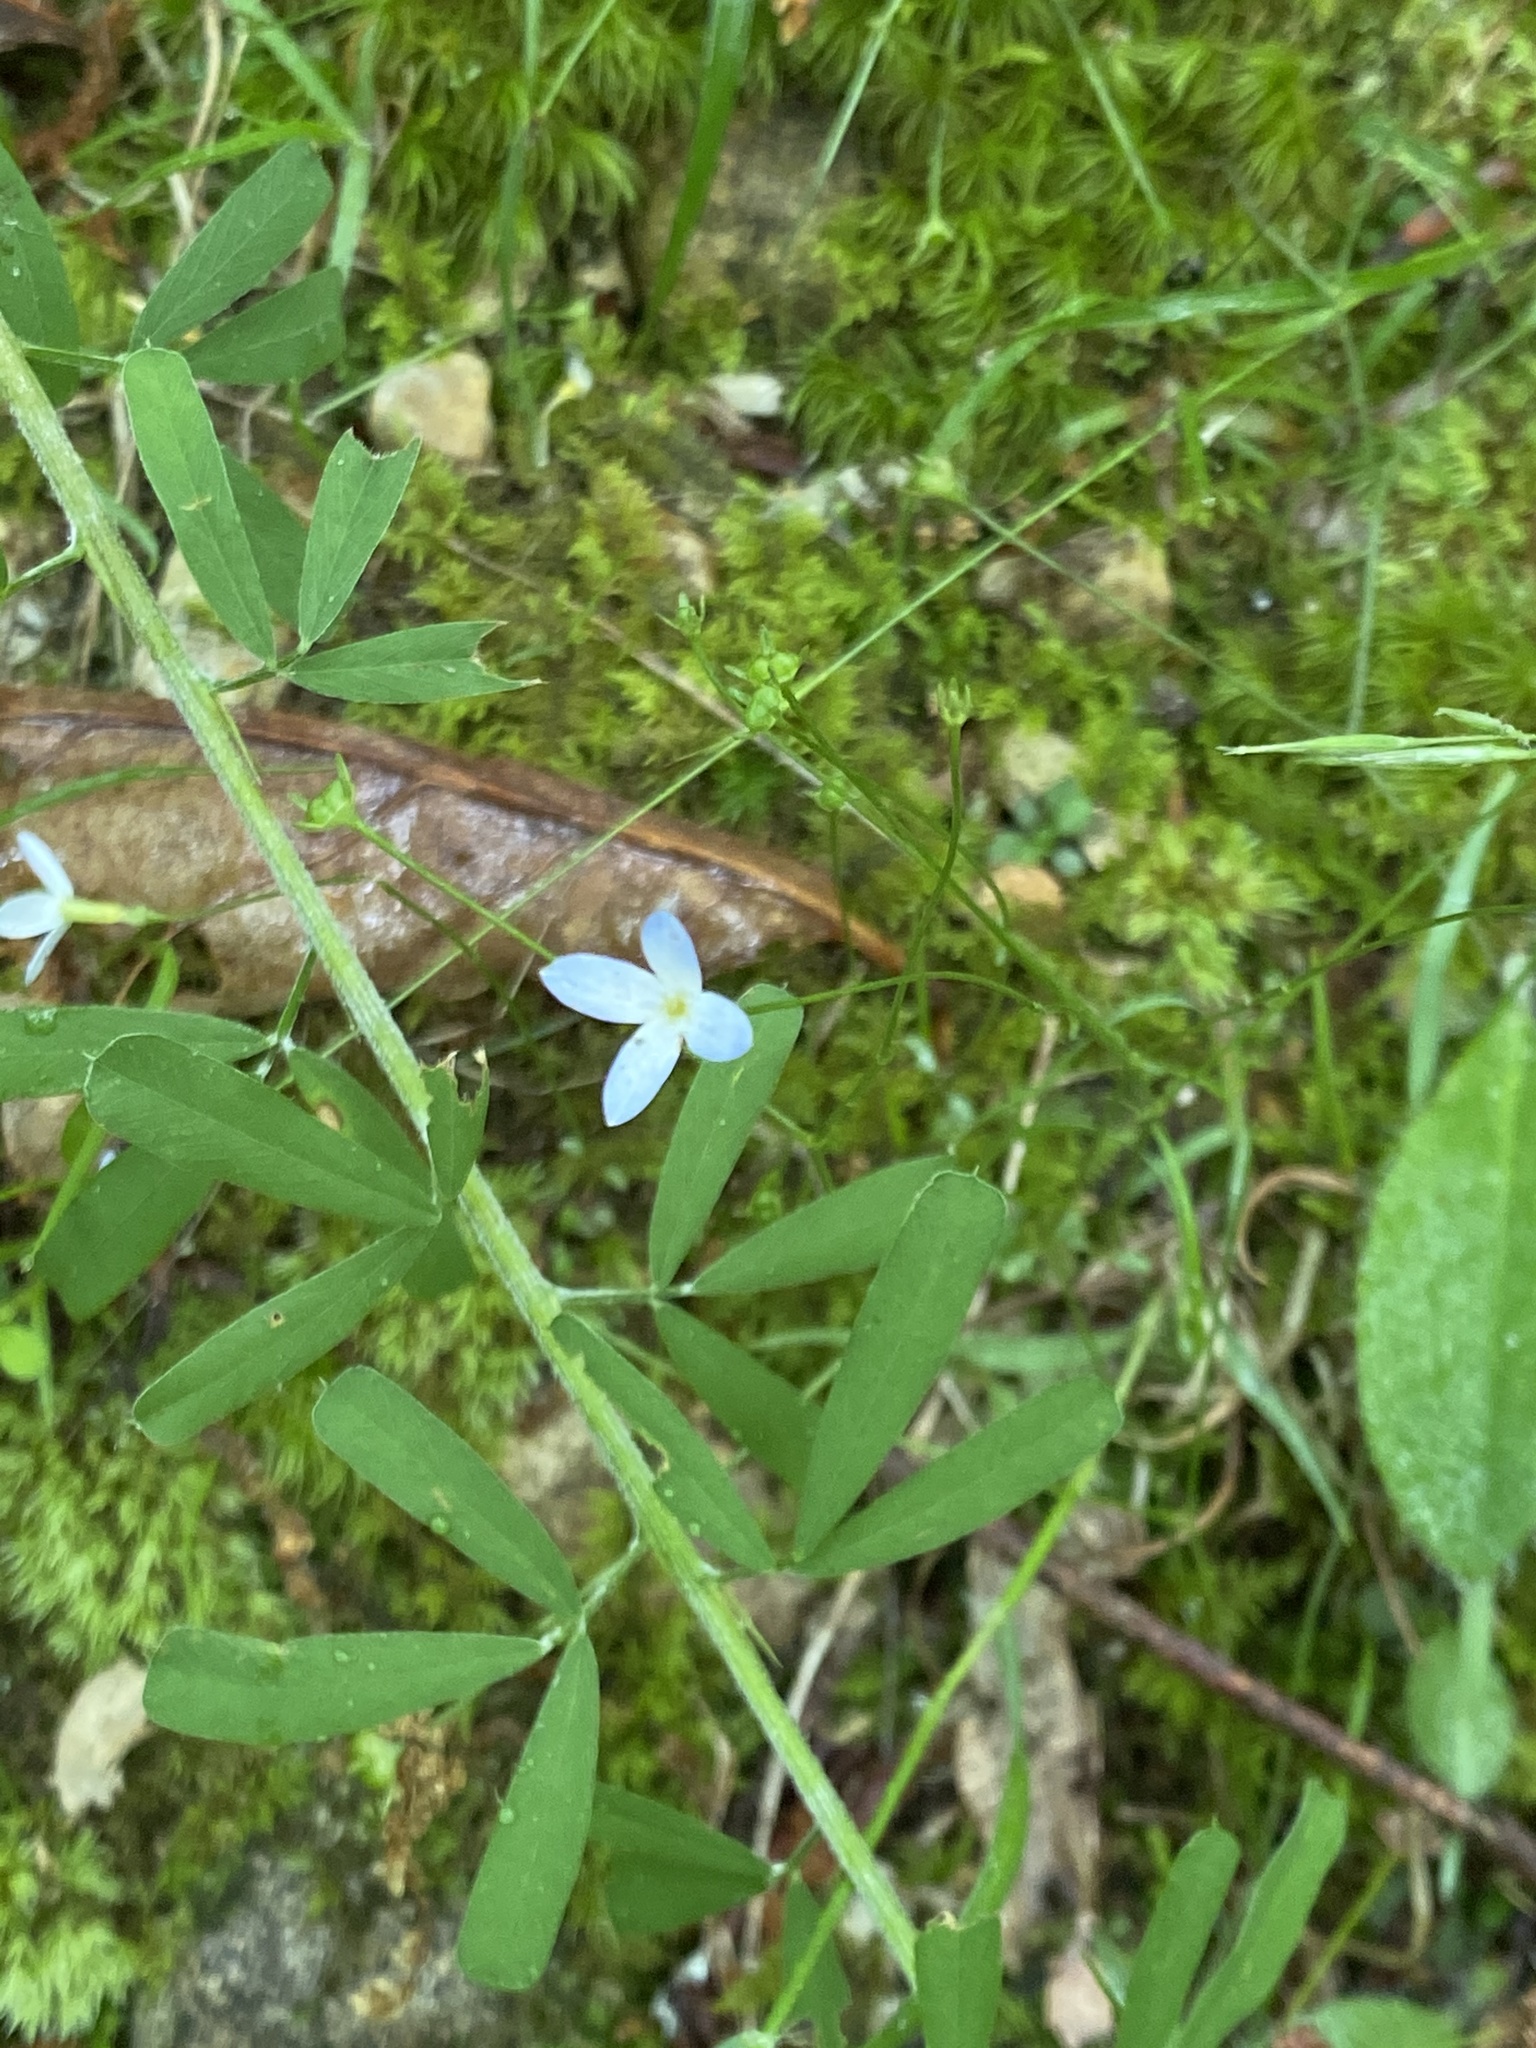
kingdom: Plantae
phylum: Tracheophyta
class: Magnoliopsida
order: Gentianales
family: Rubiaceae
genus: Houstonia
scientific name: Houstonia caerulea
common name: Bluets
